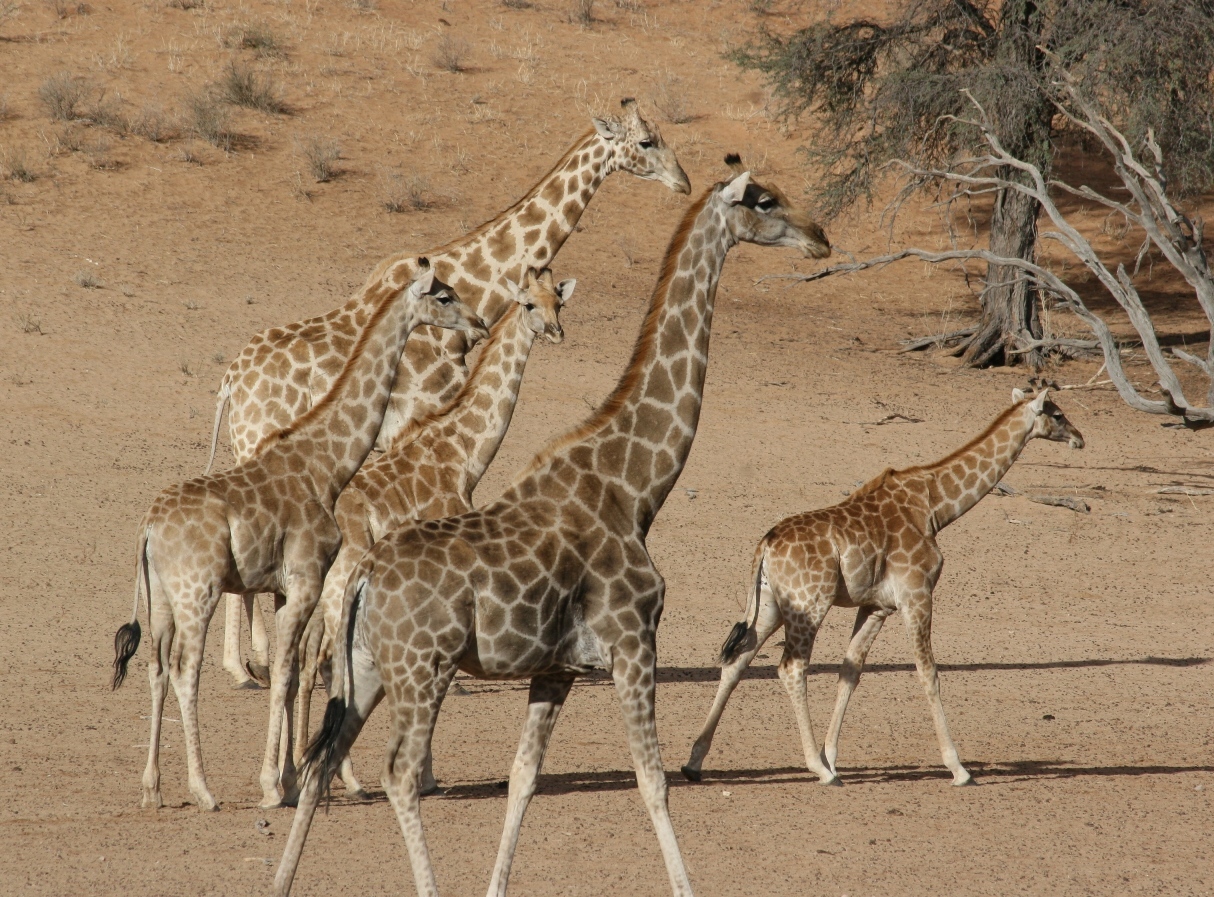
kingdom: Animalia
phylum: Chordata
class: Mammalia
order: Artiodactyla
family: Giraffidae
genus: Giraffa
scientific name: Giraffa giraffa
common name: Southern giraffe
